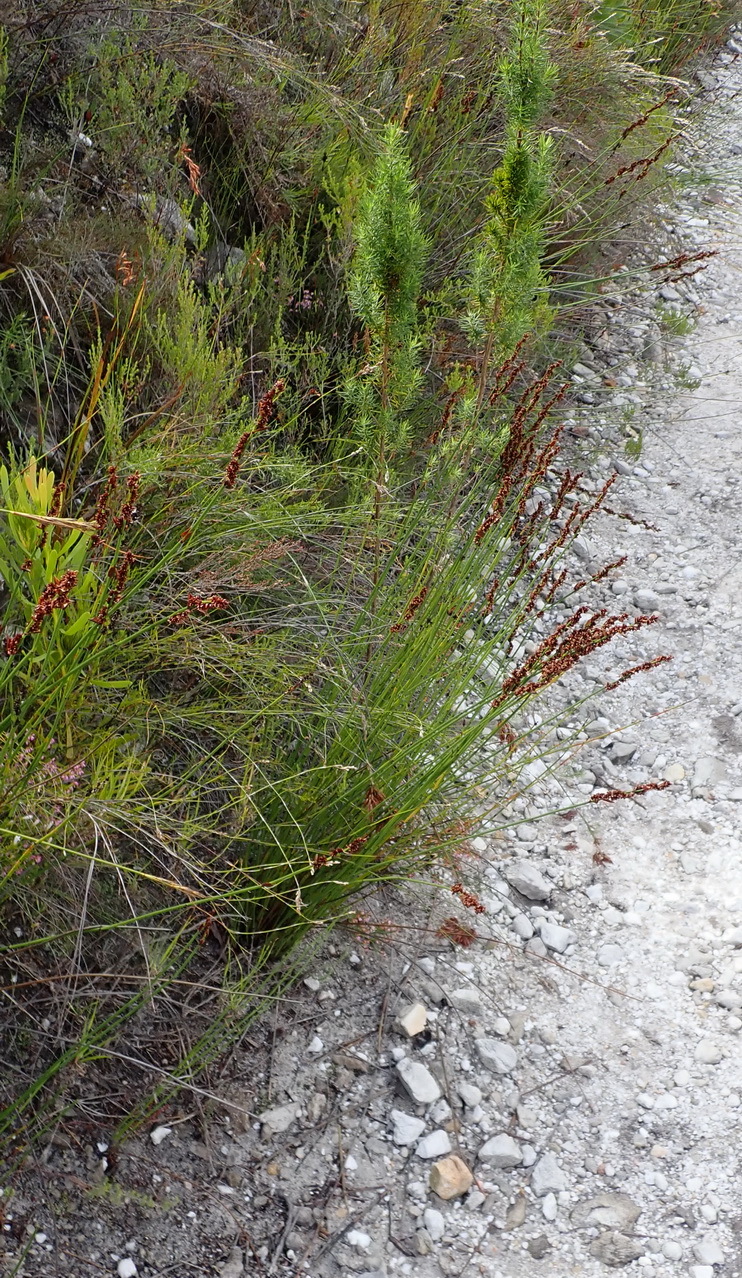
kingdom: Plantae
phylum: Tracheophyta
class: Liliopsida
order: Poales
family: Restionaceae
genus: Elegia
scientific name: Elegia hookeriana
